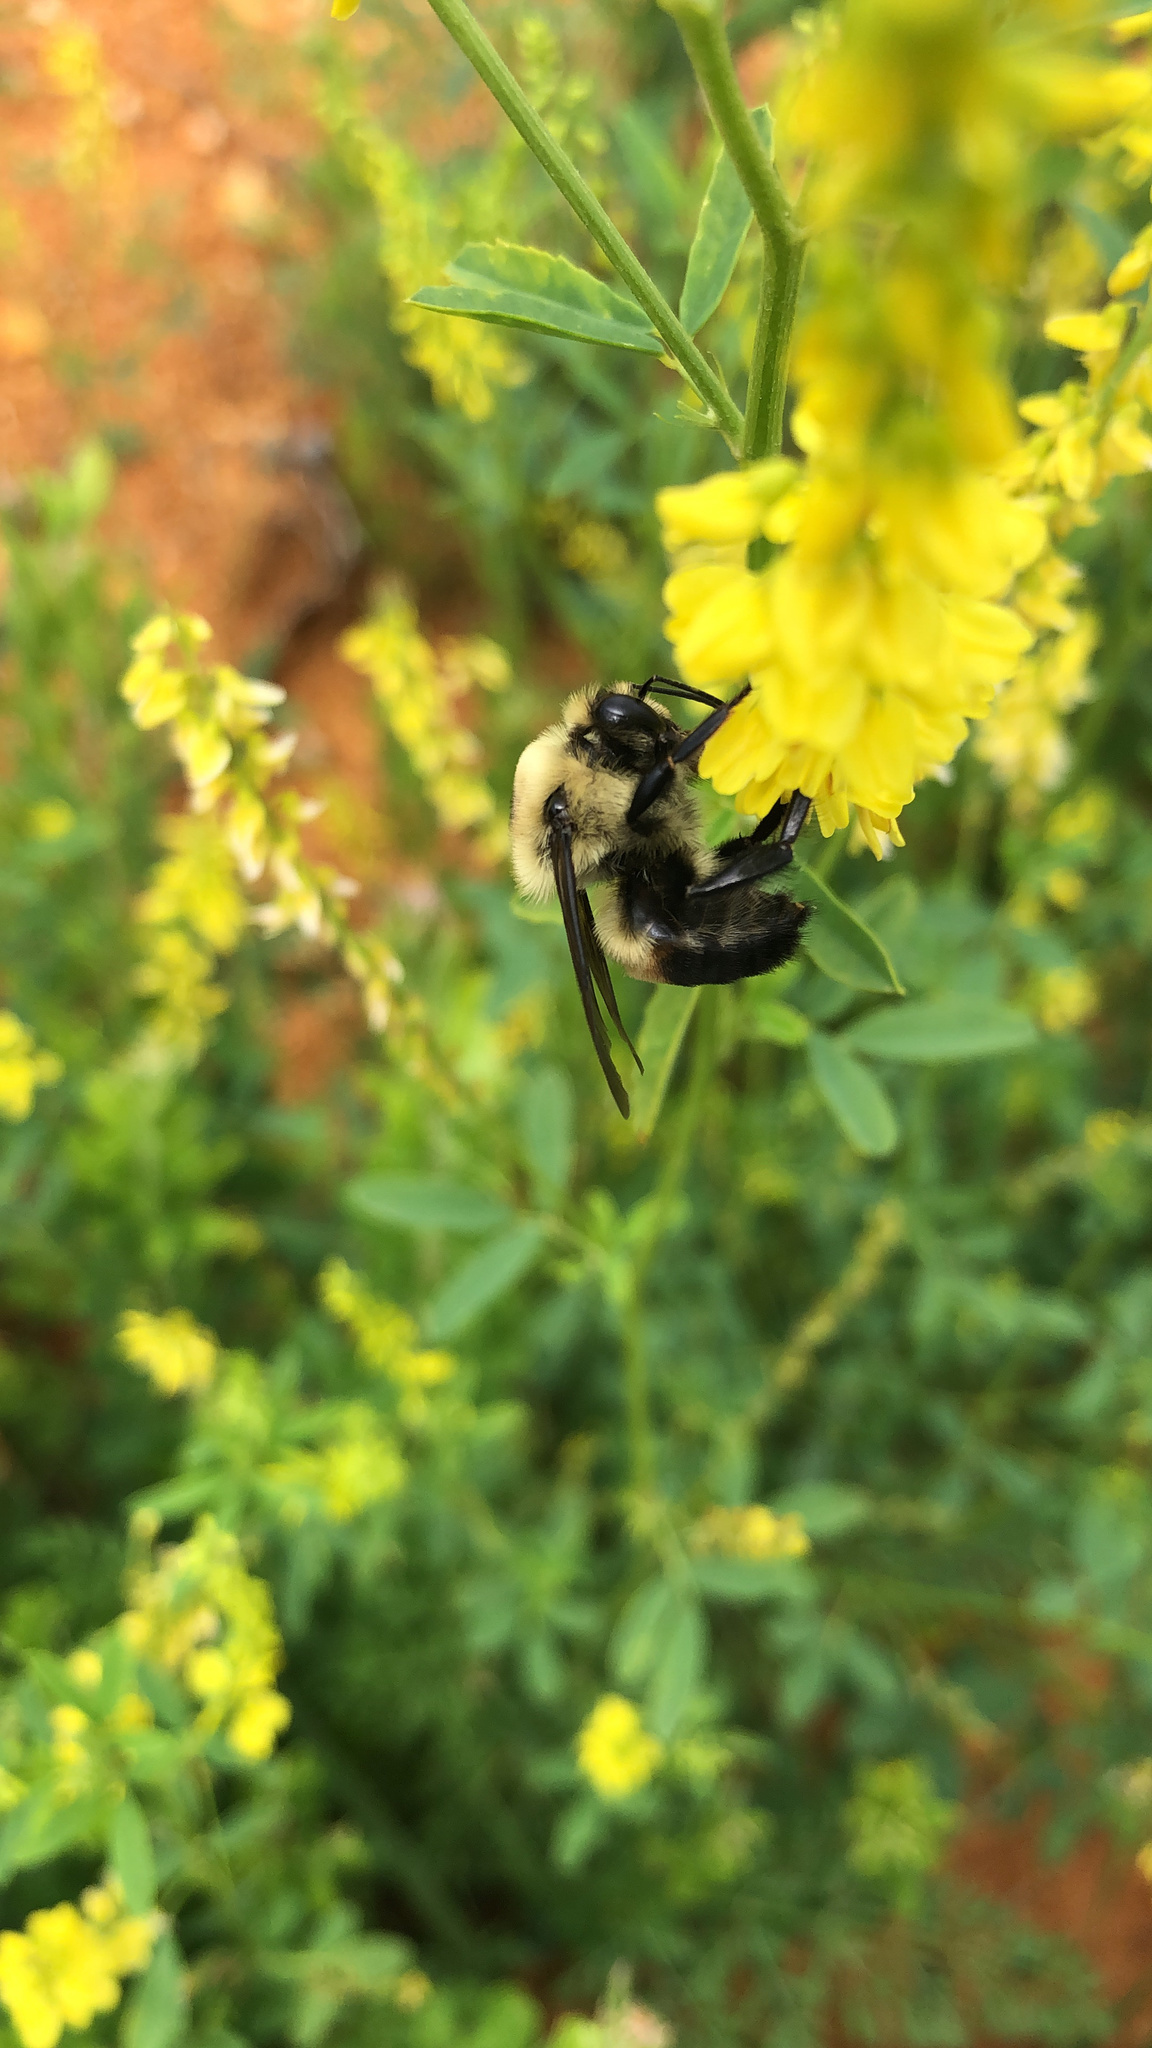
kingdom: Animalia
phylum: Arthropoda
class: Insecta
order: Hymenoptera
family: Apidae
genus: Bombus
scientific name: Bombus griseocollis
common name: Brown-belted bumble bee
